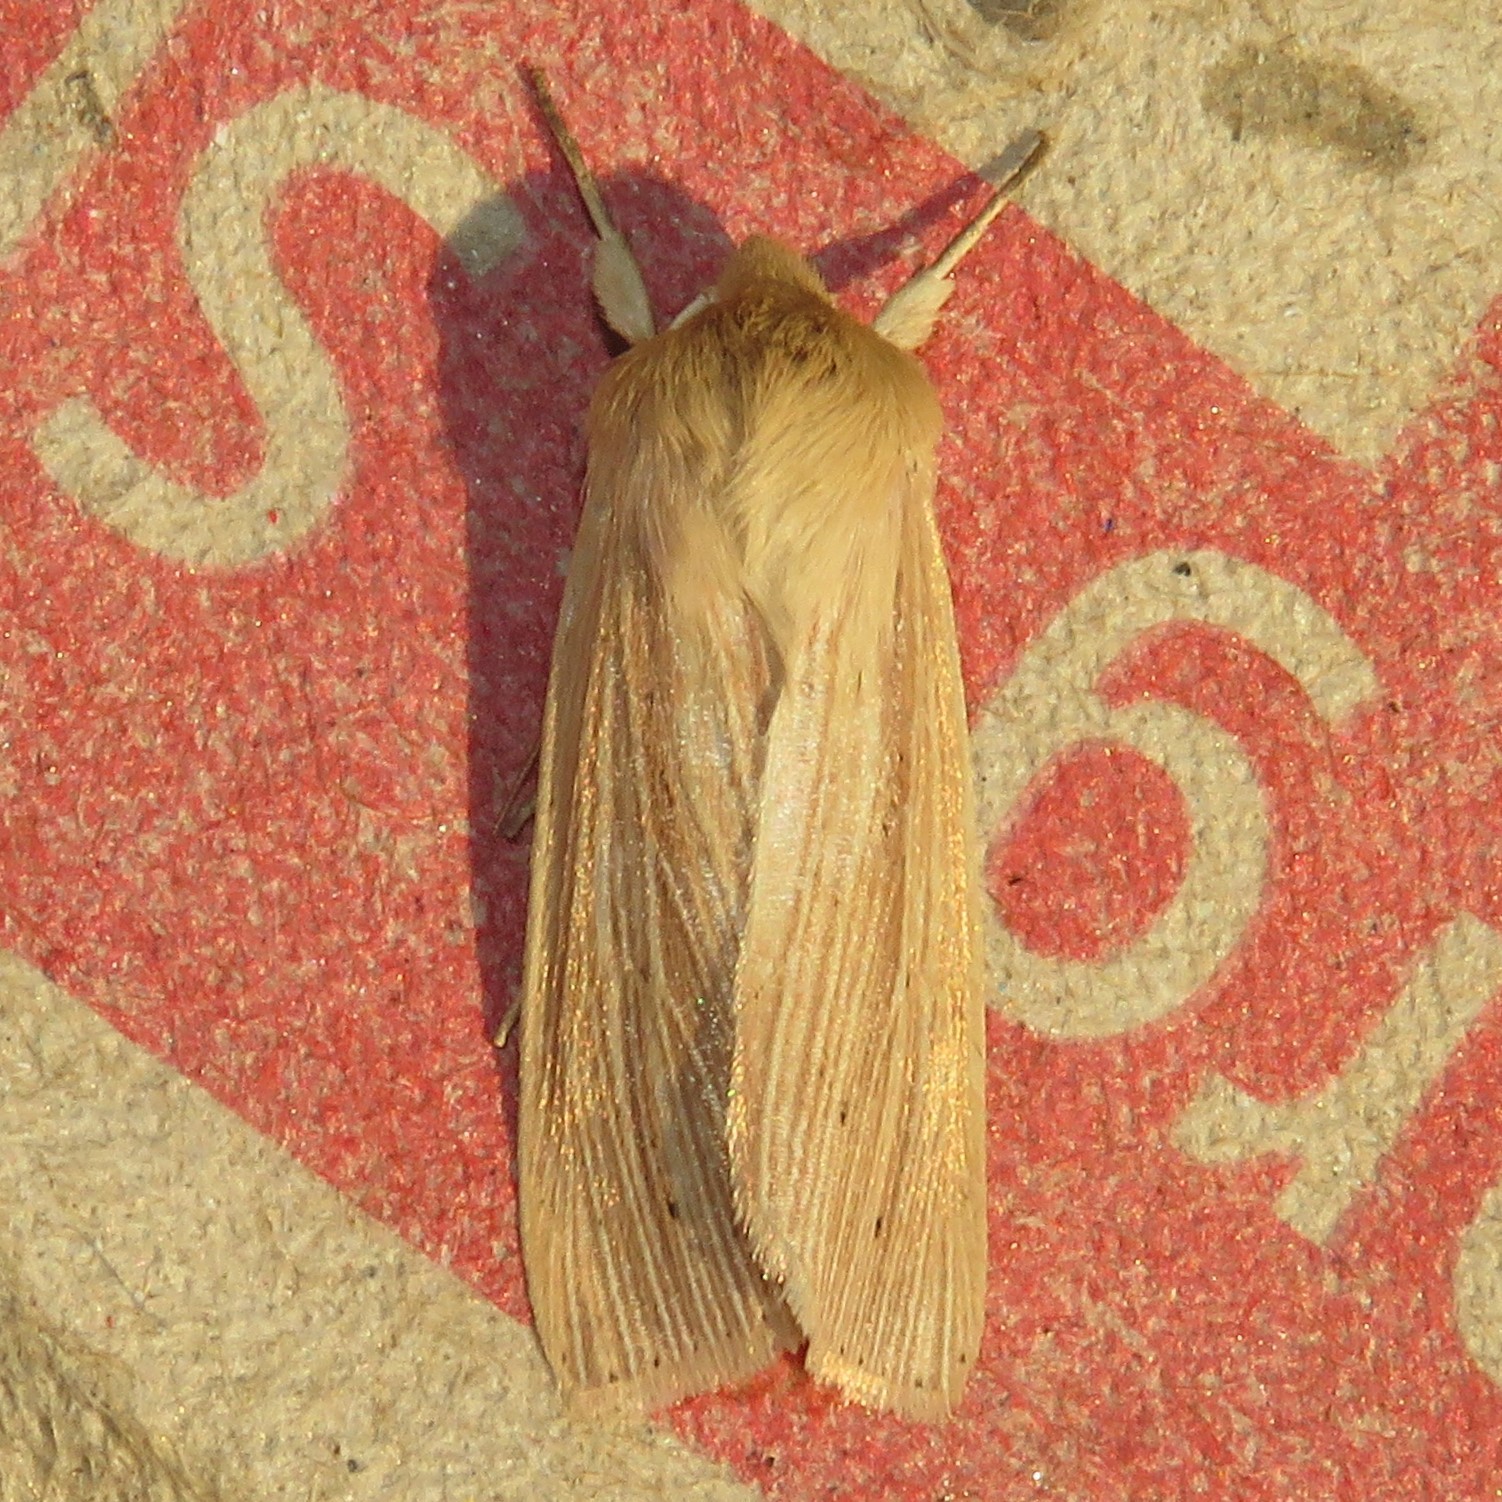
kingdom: Animalia
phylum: Arthropoda
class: Insecta
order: Lepidoptera
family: Noctuidae
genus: Mythimna
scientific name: Mythimna oxygala
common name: Lesser wainscot
